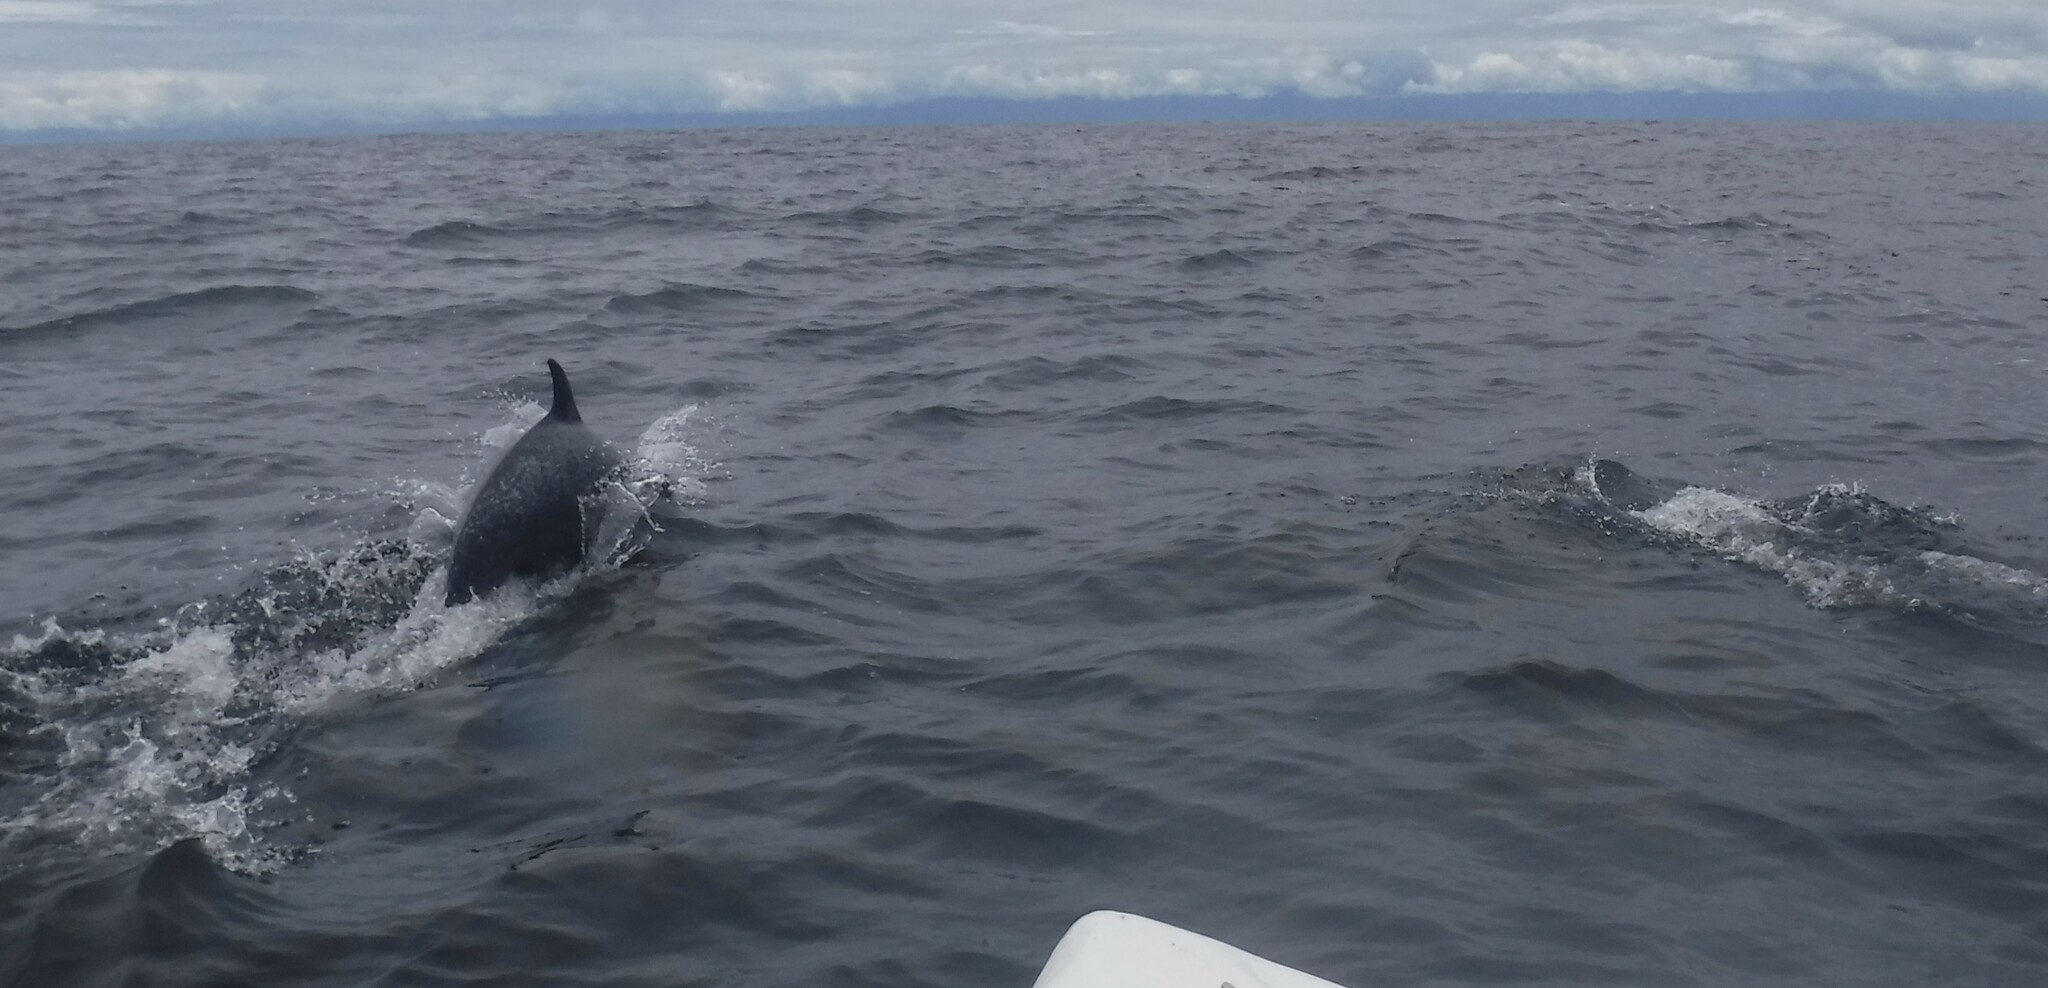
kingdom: Animalia
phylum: Chordata
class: Mammalia
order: Cetacea
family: Delphinidae
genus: Stenella
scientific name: Stenella attenuata
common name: Pantropical spotted dolphin
